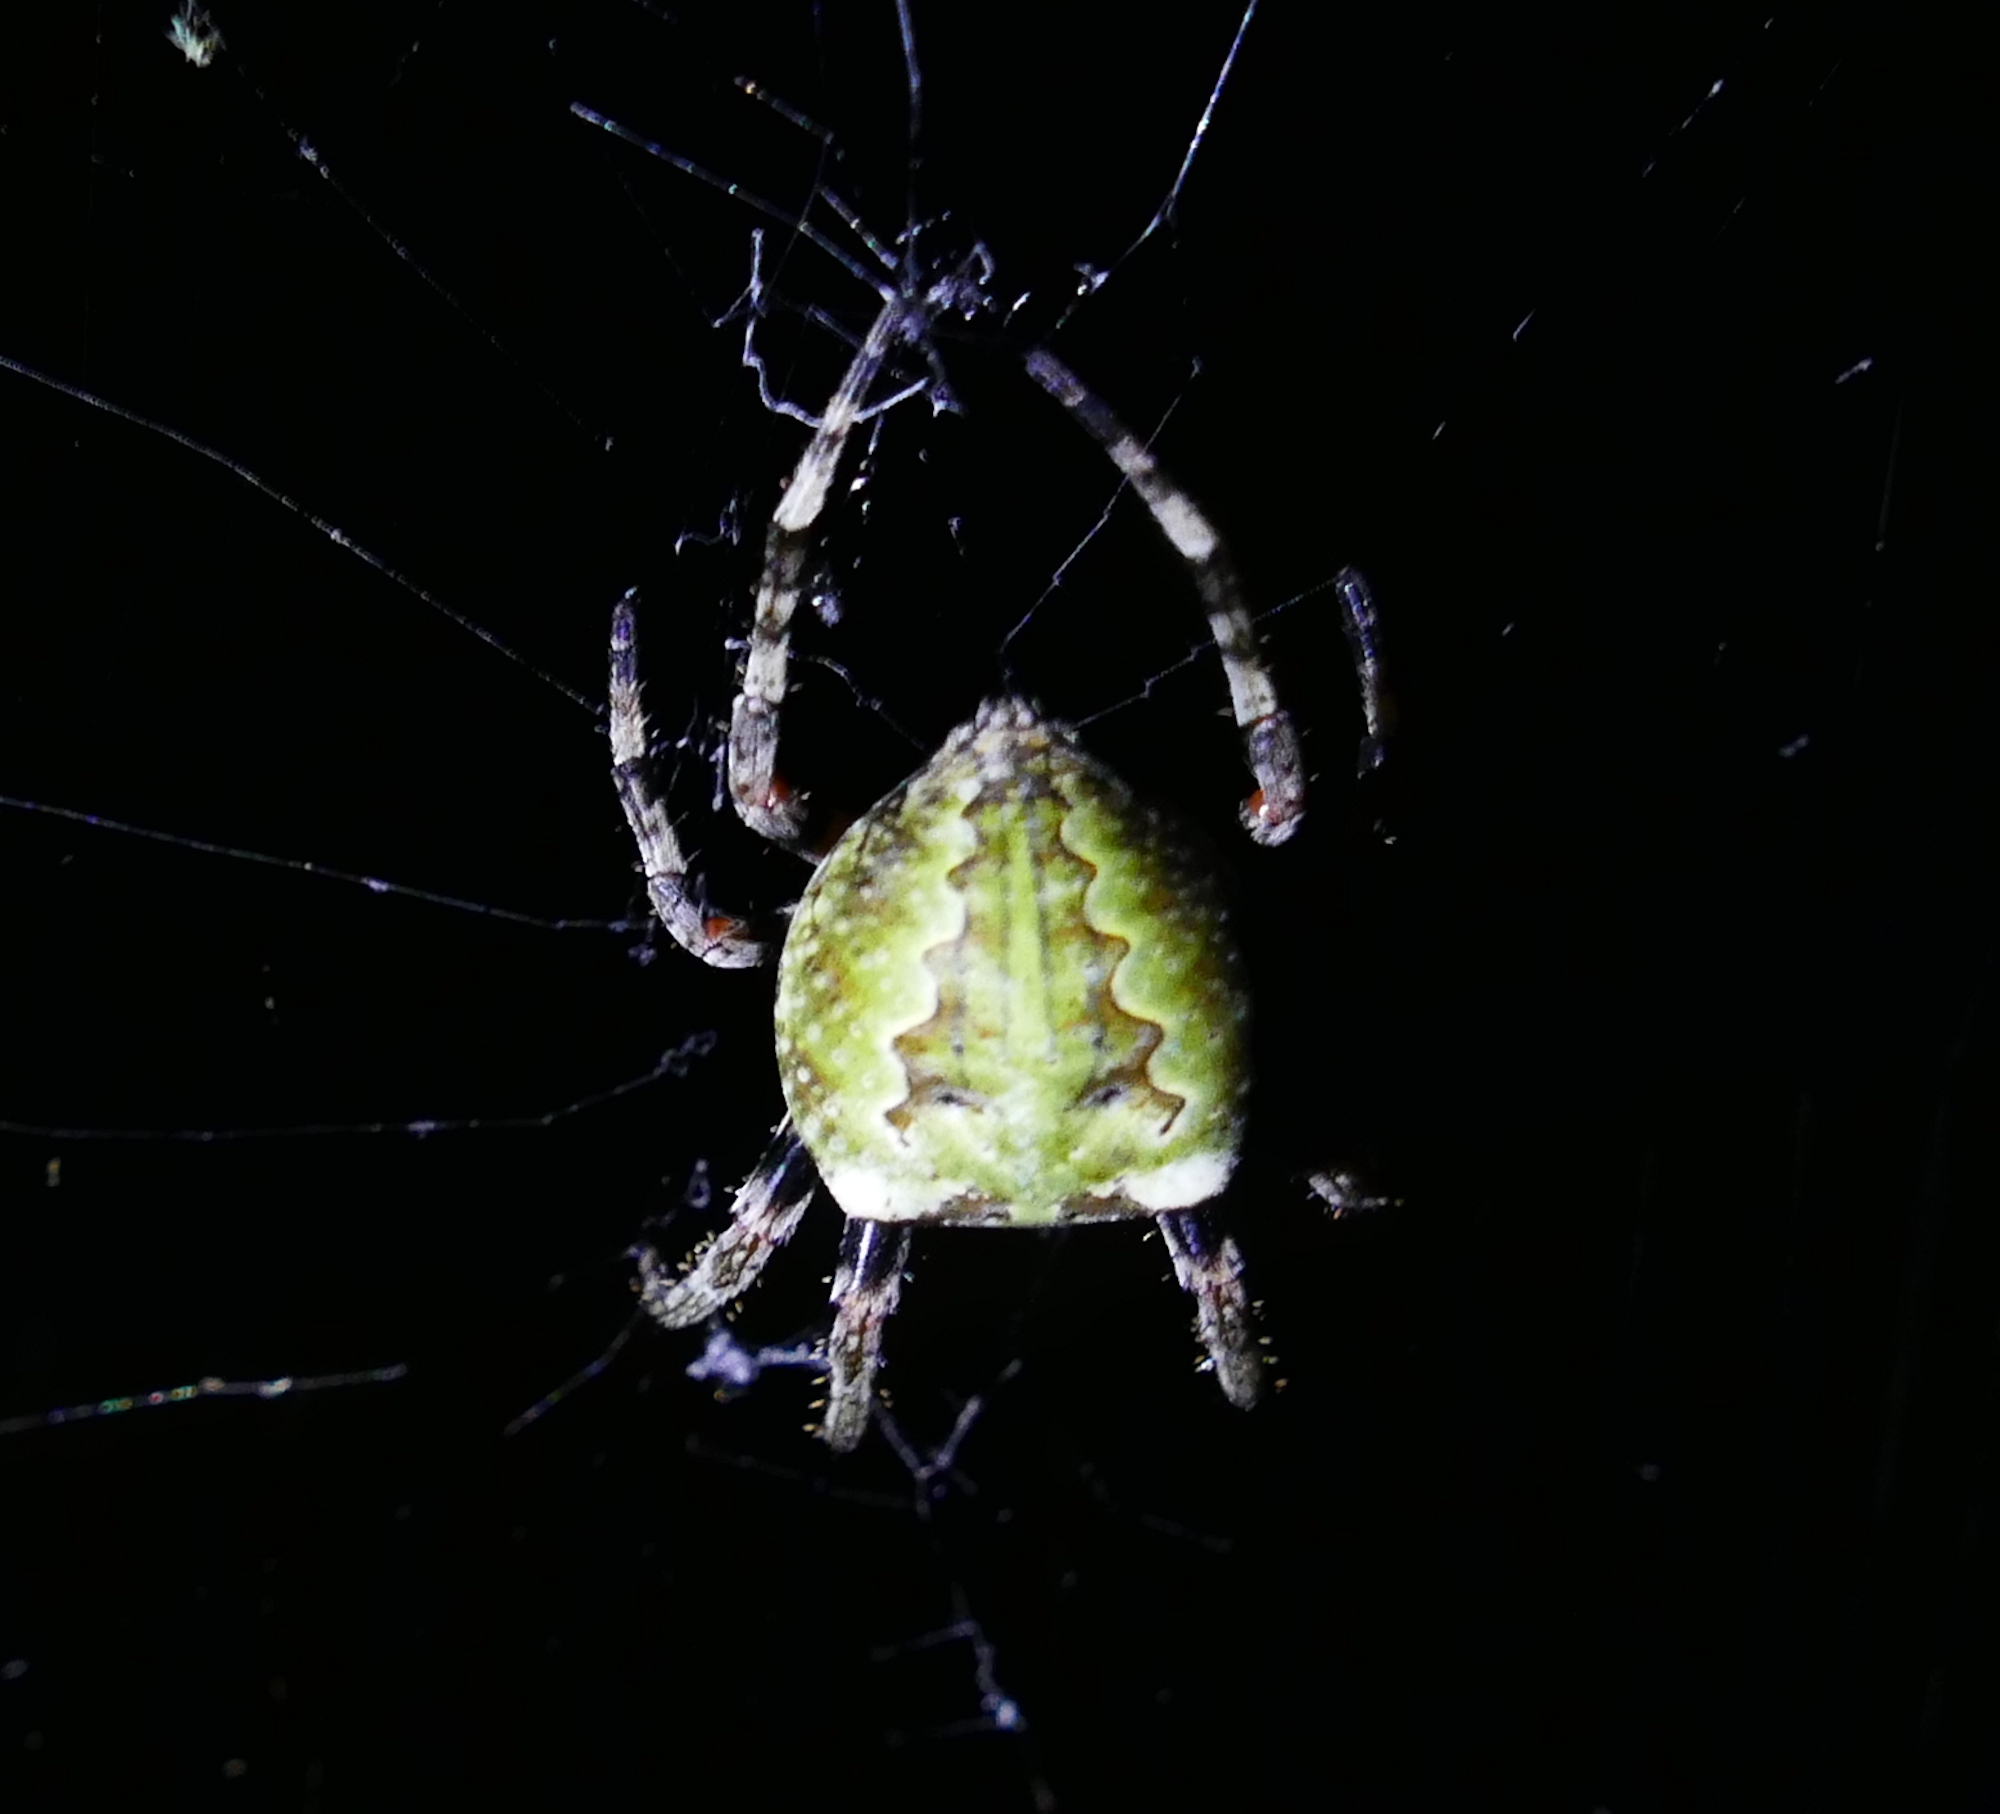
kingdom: Animalia
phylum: Arthropoda
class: Arachnida
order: Araneae
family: Araneidae
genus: Araneus
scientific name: Araneus bicentenarius
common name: Giant lichen orbweaver
